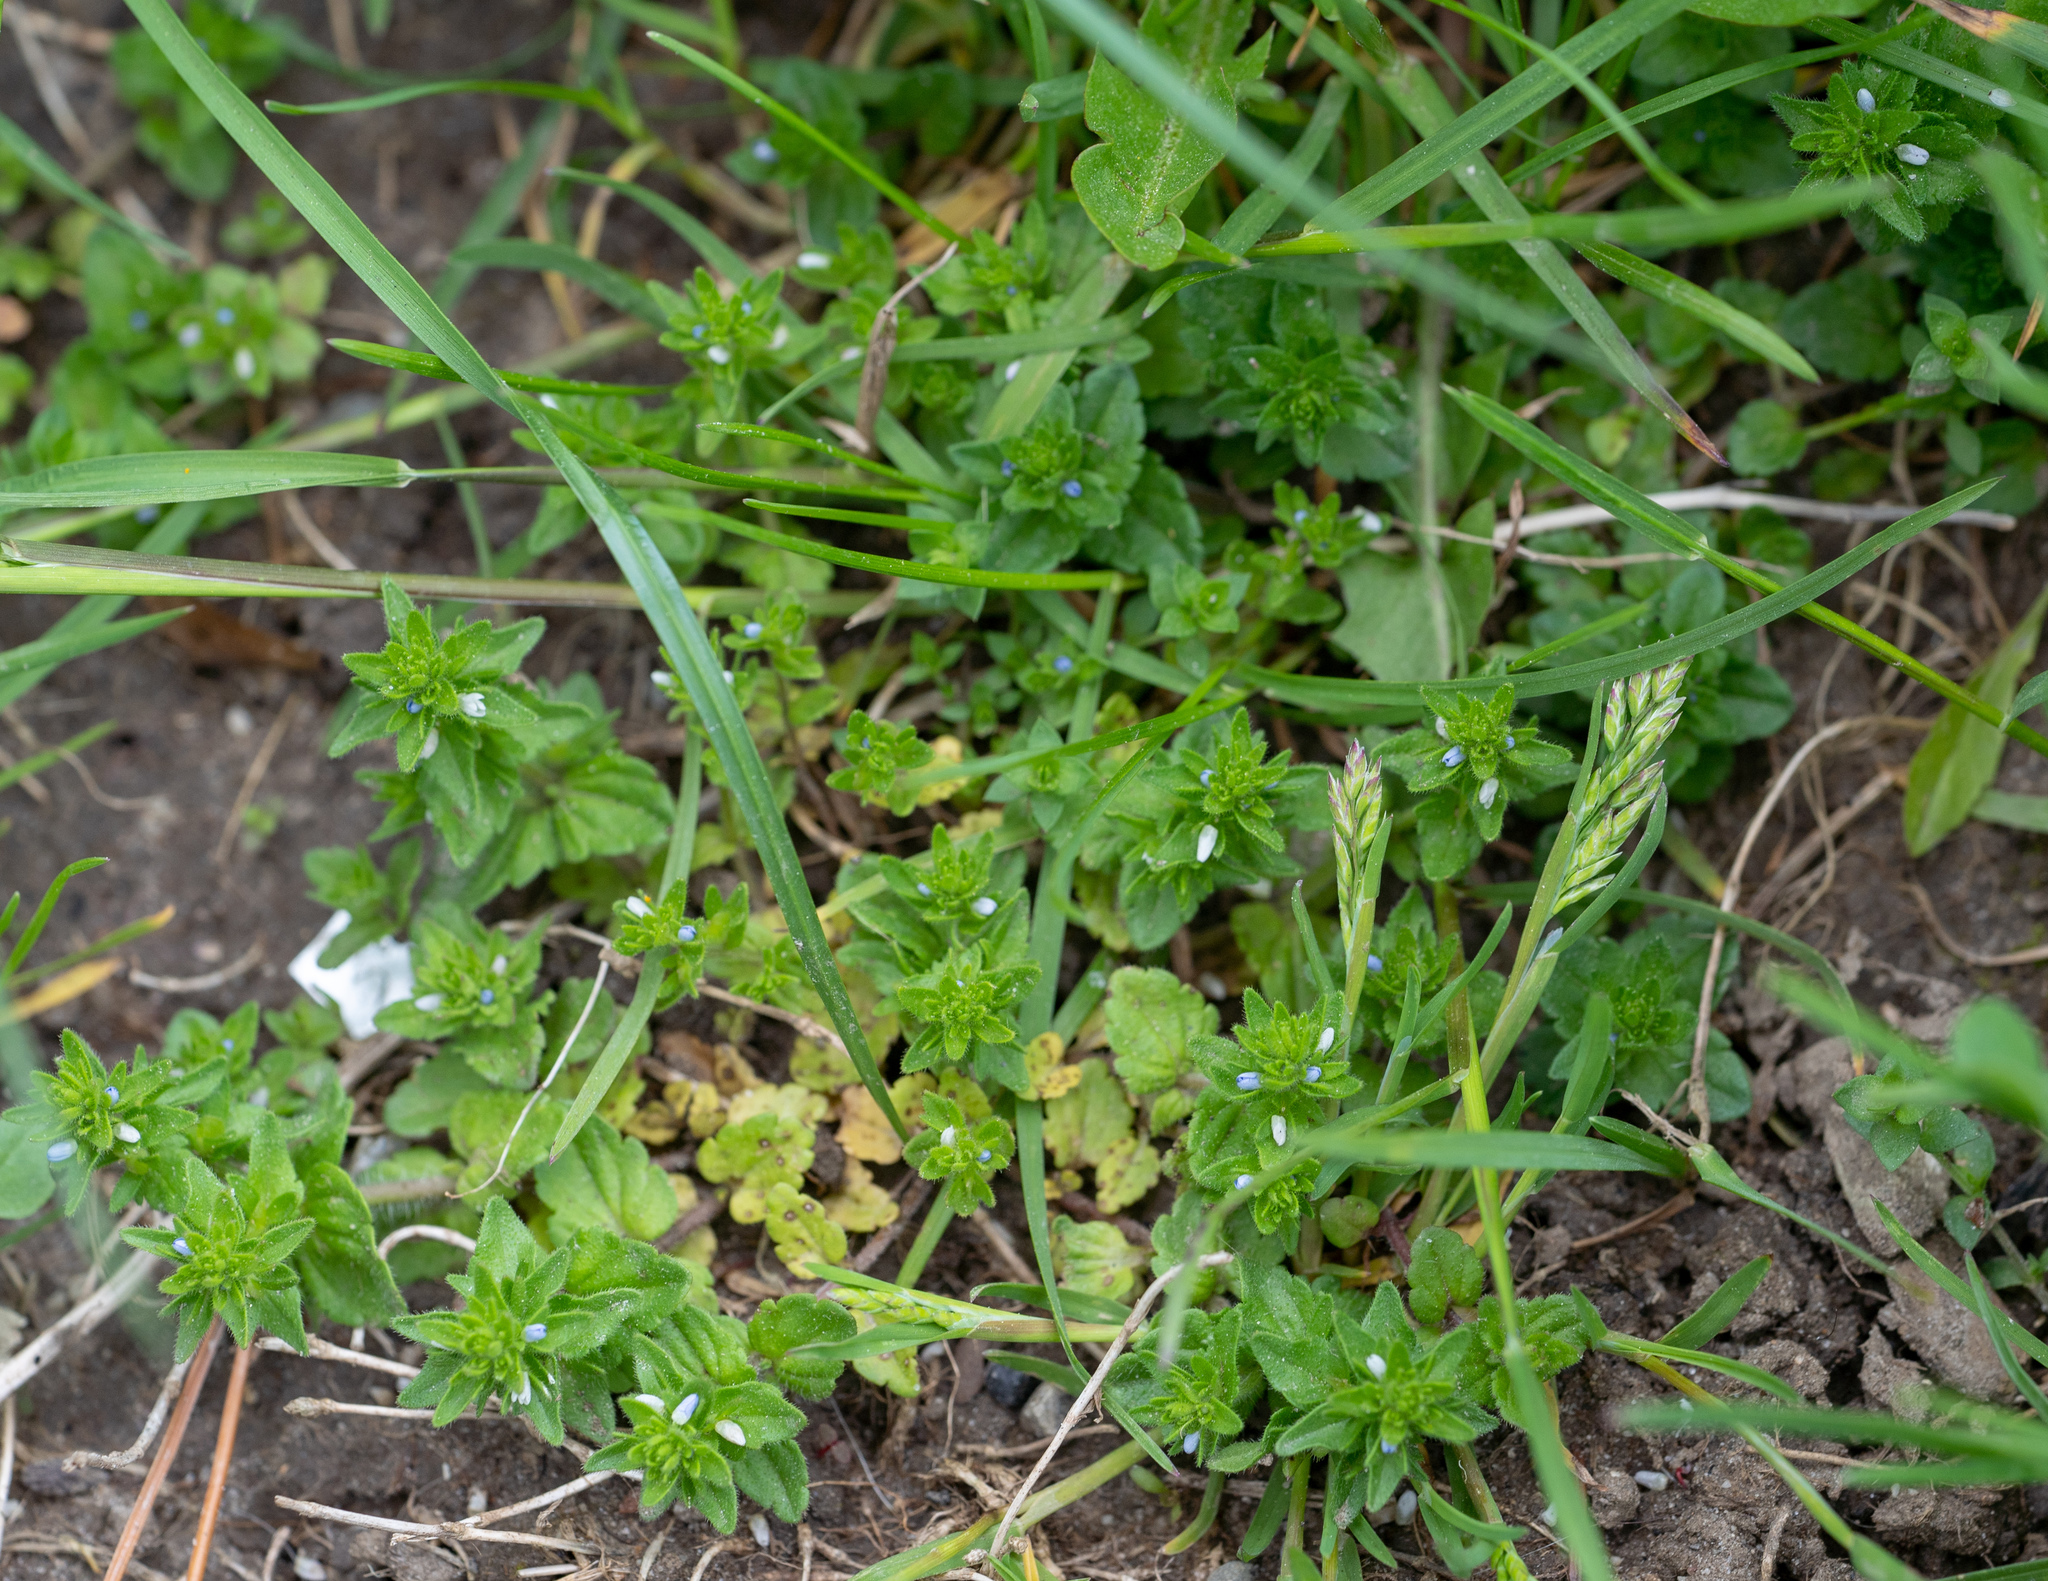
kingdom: Plantae
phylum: Tracheophyta
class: Magnoliopsida
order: Lamiales
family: Plantaginaceae
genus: Veronica
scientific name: Veronica arvensis
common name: Corn speedwell
